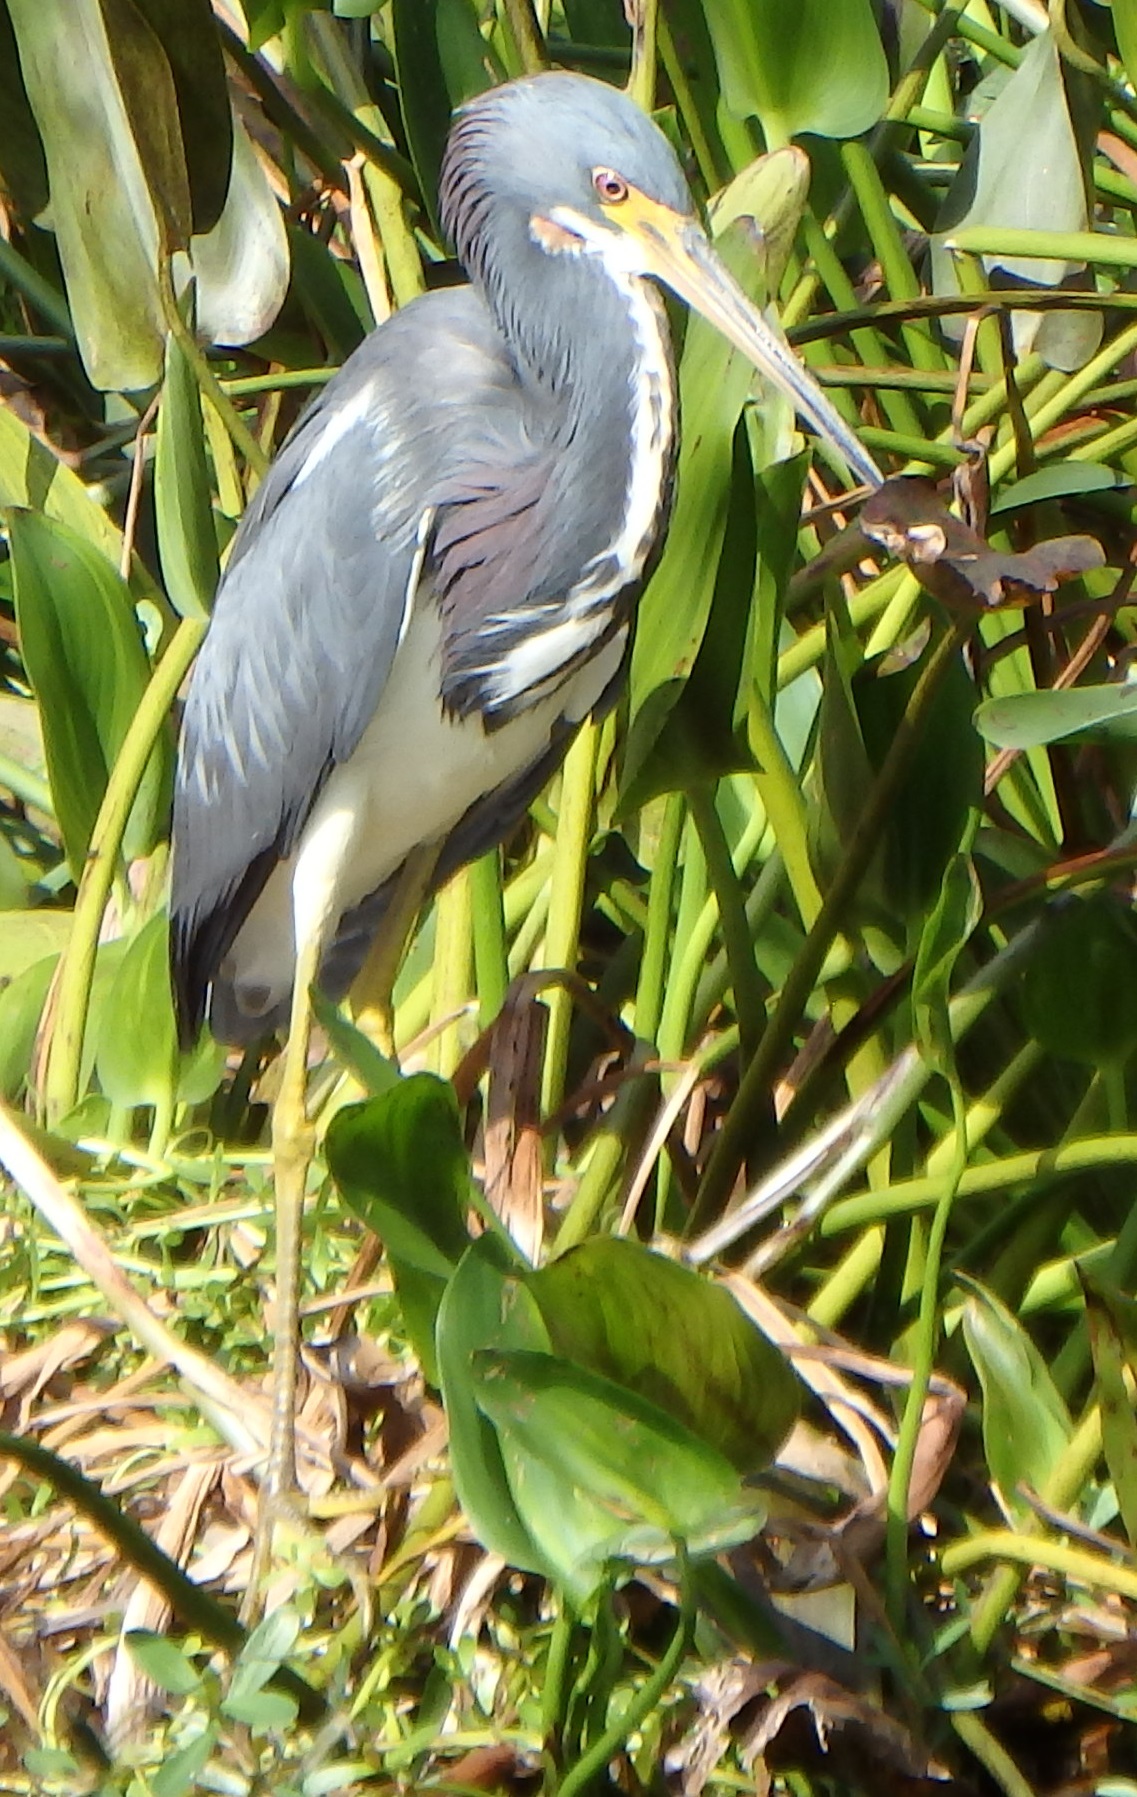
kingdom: Animalia
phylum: Chordata
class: Aves
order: Pelecaniformes
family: Ardeidae
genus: Egretta
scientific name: Egretta tricolor
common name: Tricolored heron
